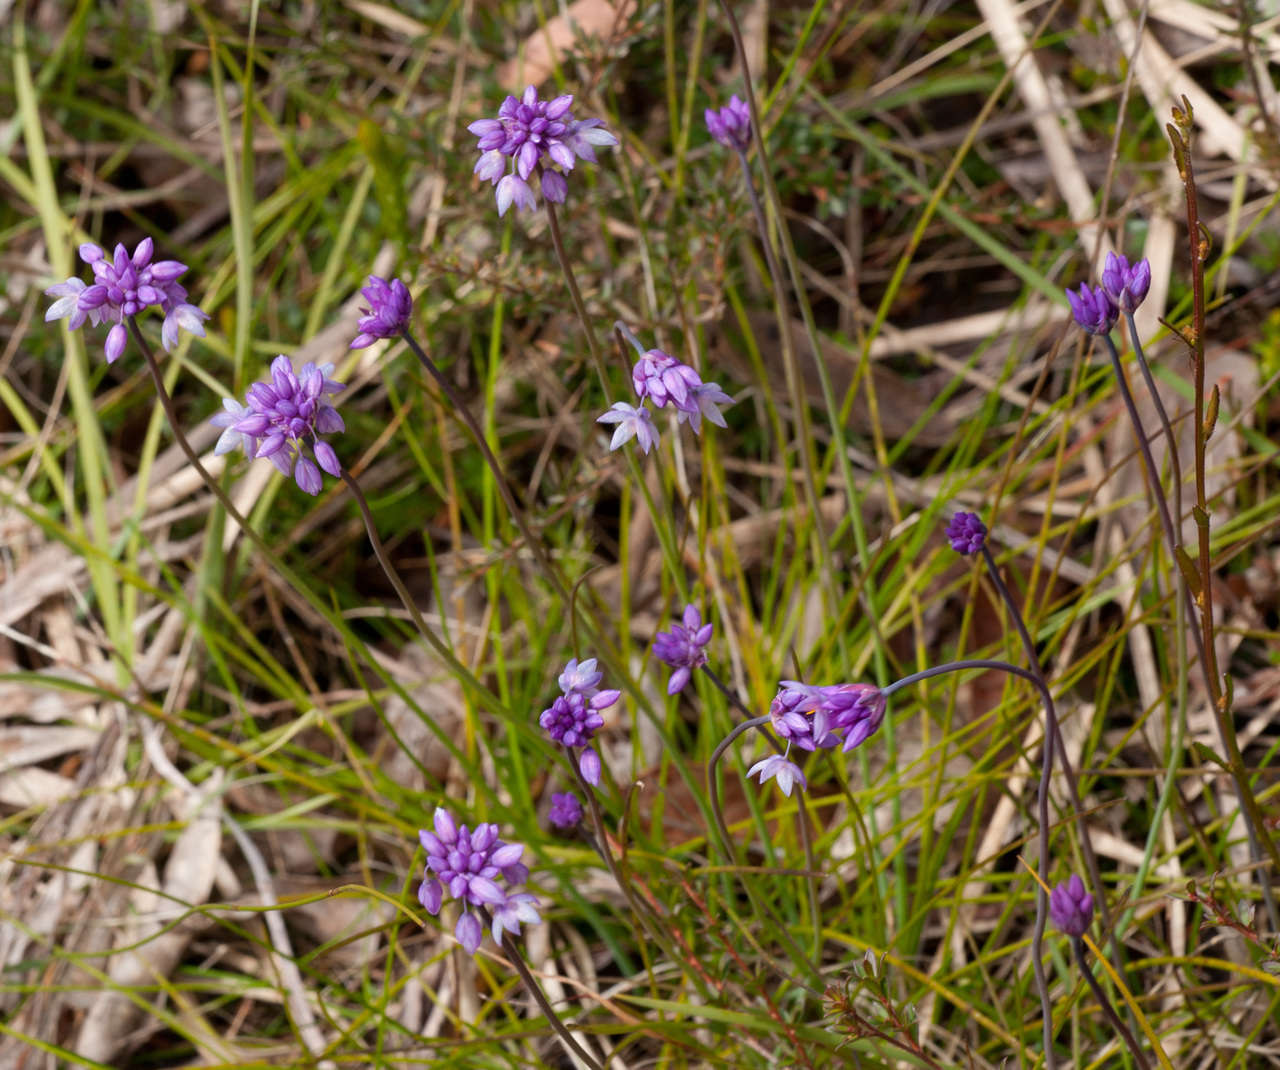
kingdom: Plantae
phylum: Tracheophyta
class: Liliopsida
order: Asparagales
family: Asparagaceae
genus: Sowerbaea
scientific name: Sowerbaea juncea
